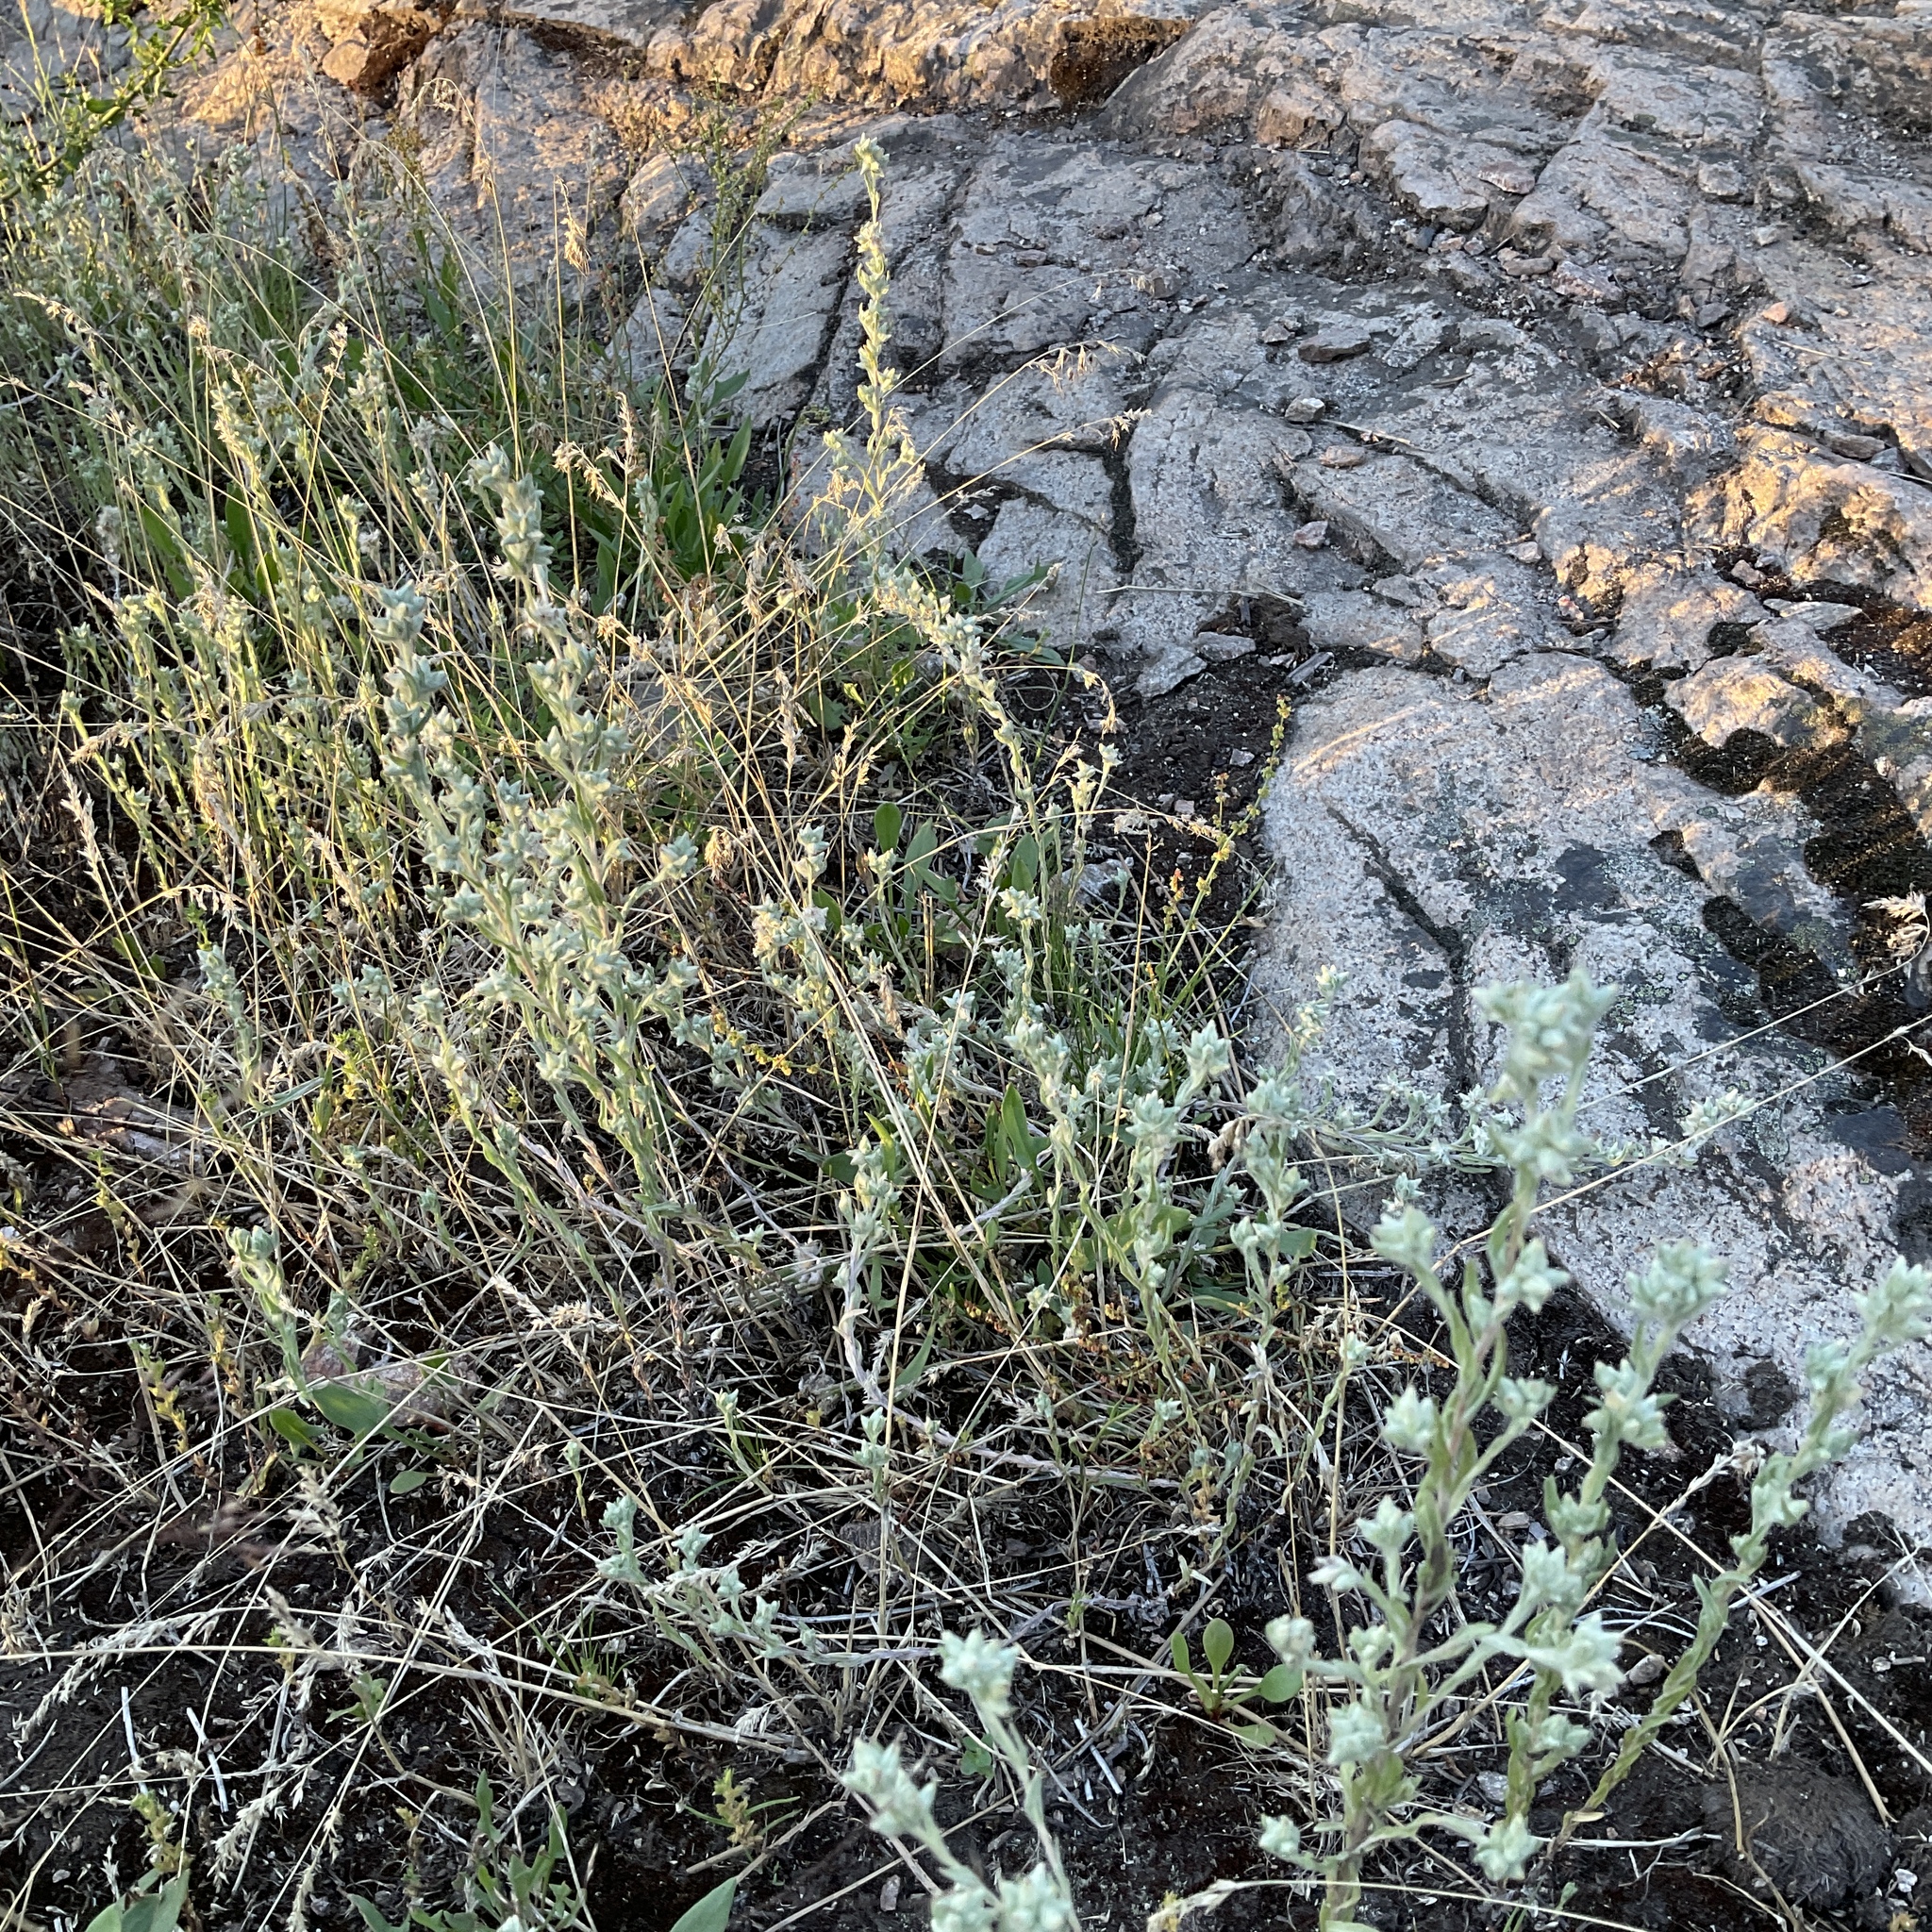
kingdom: Plantae
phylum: Tracheophyta
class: Magnoliopsida
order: Asterales
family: Asteraceae
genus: Filago
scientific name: Filago arvensis
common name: Field cudweed
